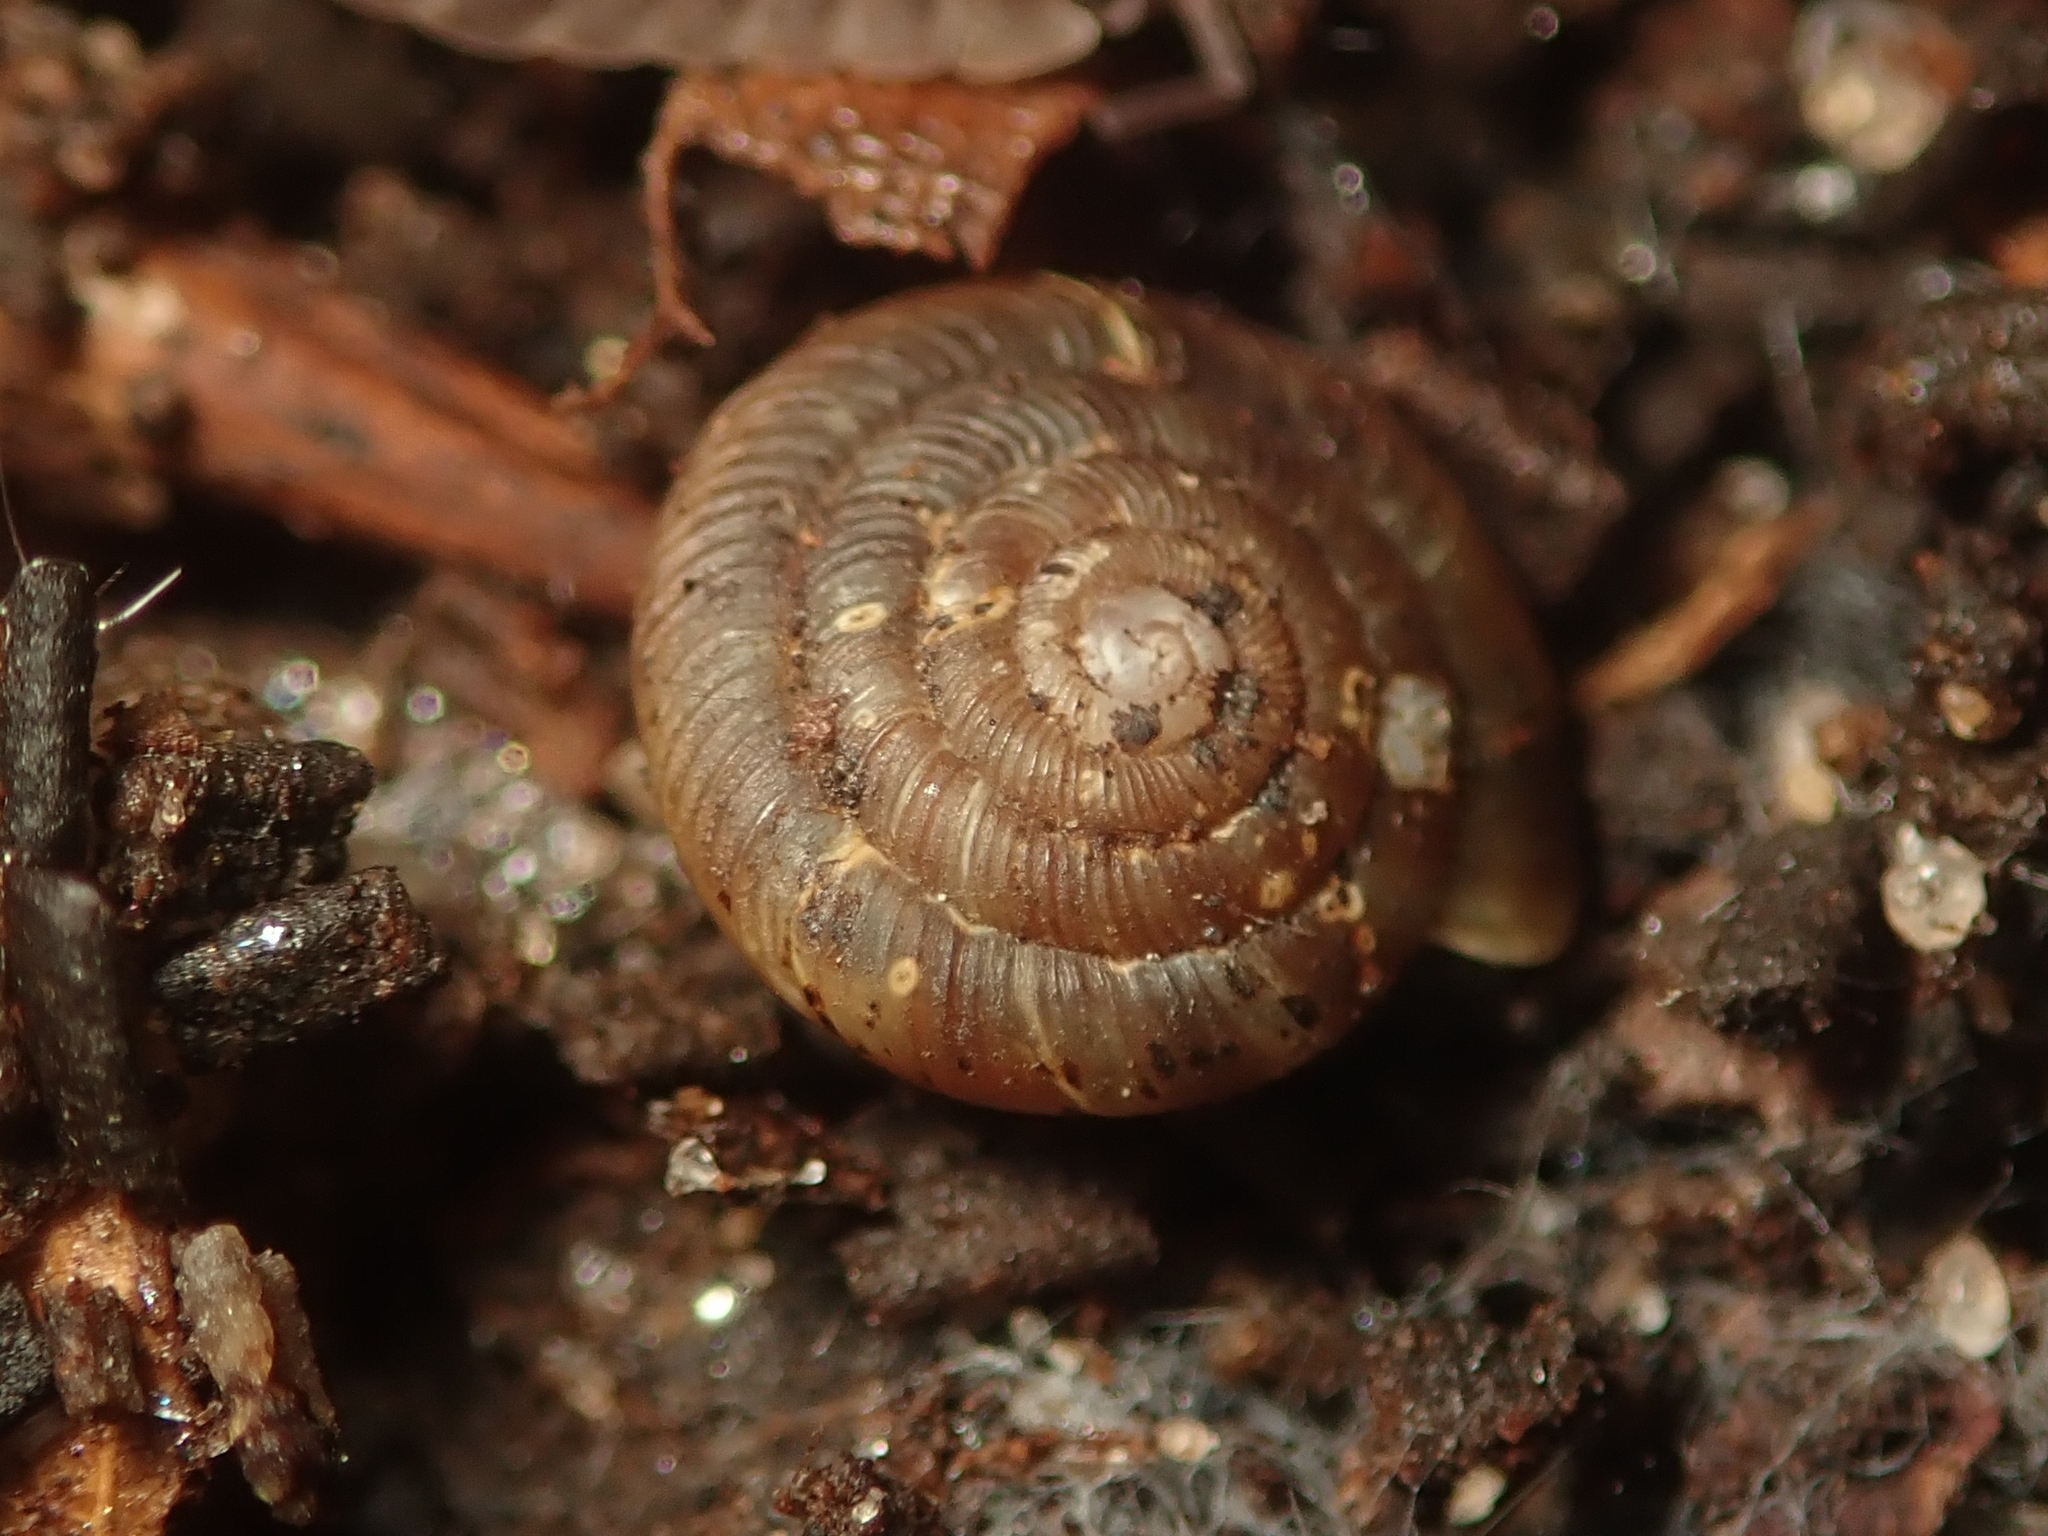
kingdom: Animalia
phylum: Mollusca
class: Gastropoda
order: Stylommatophora
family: Discidae
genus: Discus
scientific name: Discus rotundatus
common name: Rounded snail
